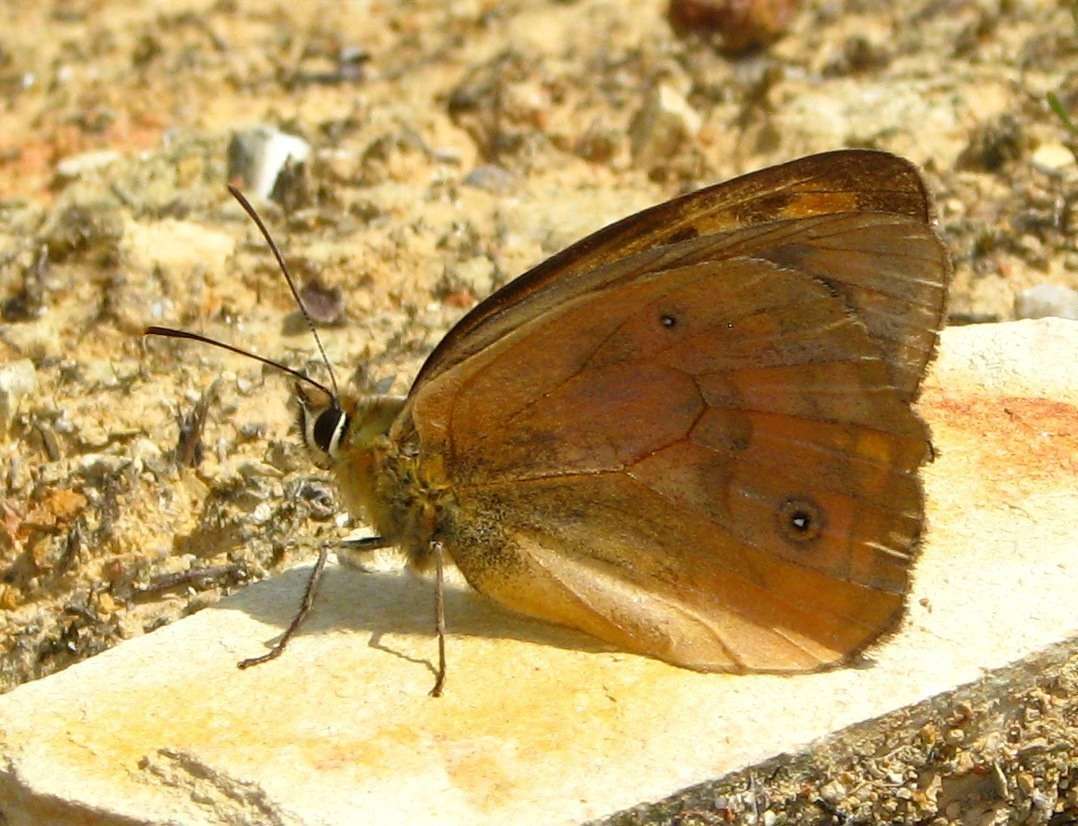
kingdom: Animalia
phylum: Arthropoda
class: Insecta
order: Lepidoptera
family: Nymphalidae
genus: Heteronympha
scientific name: Heteronympha penelope
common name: Shouldered brown
